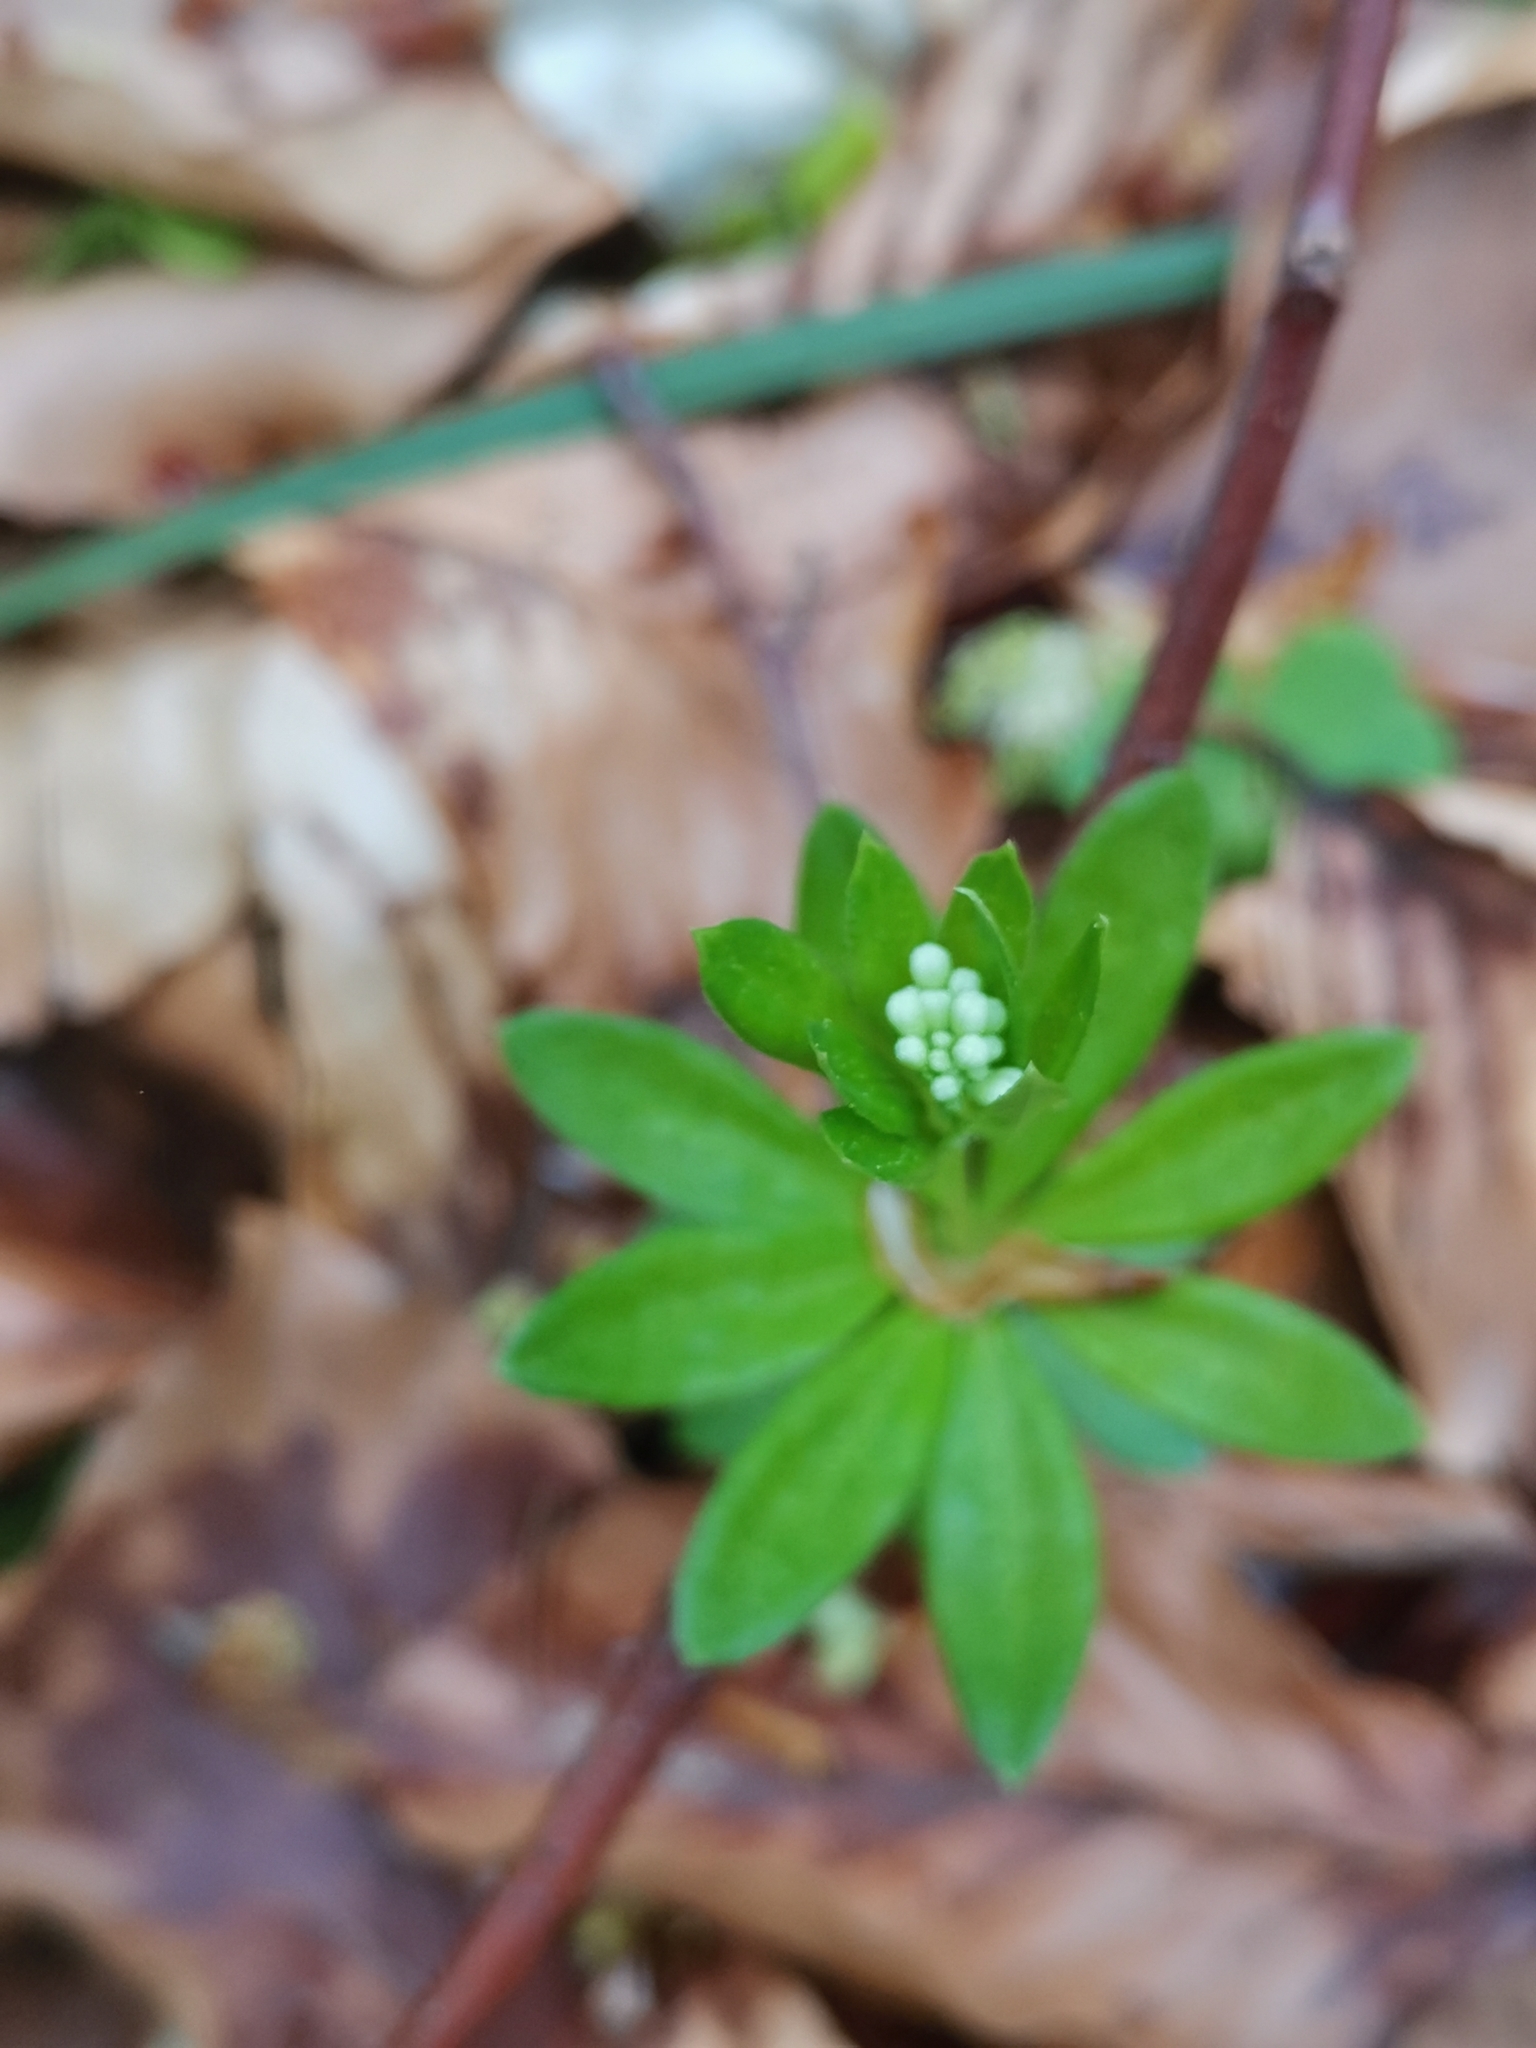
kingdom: Plantae
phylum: Tracheophyta
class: Magnoliopsida
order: Gentianales
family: Rubiaceae
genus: Galium
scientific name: Galium odoratum
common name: Sweet woodruff
